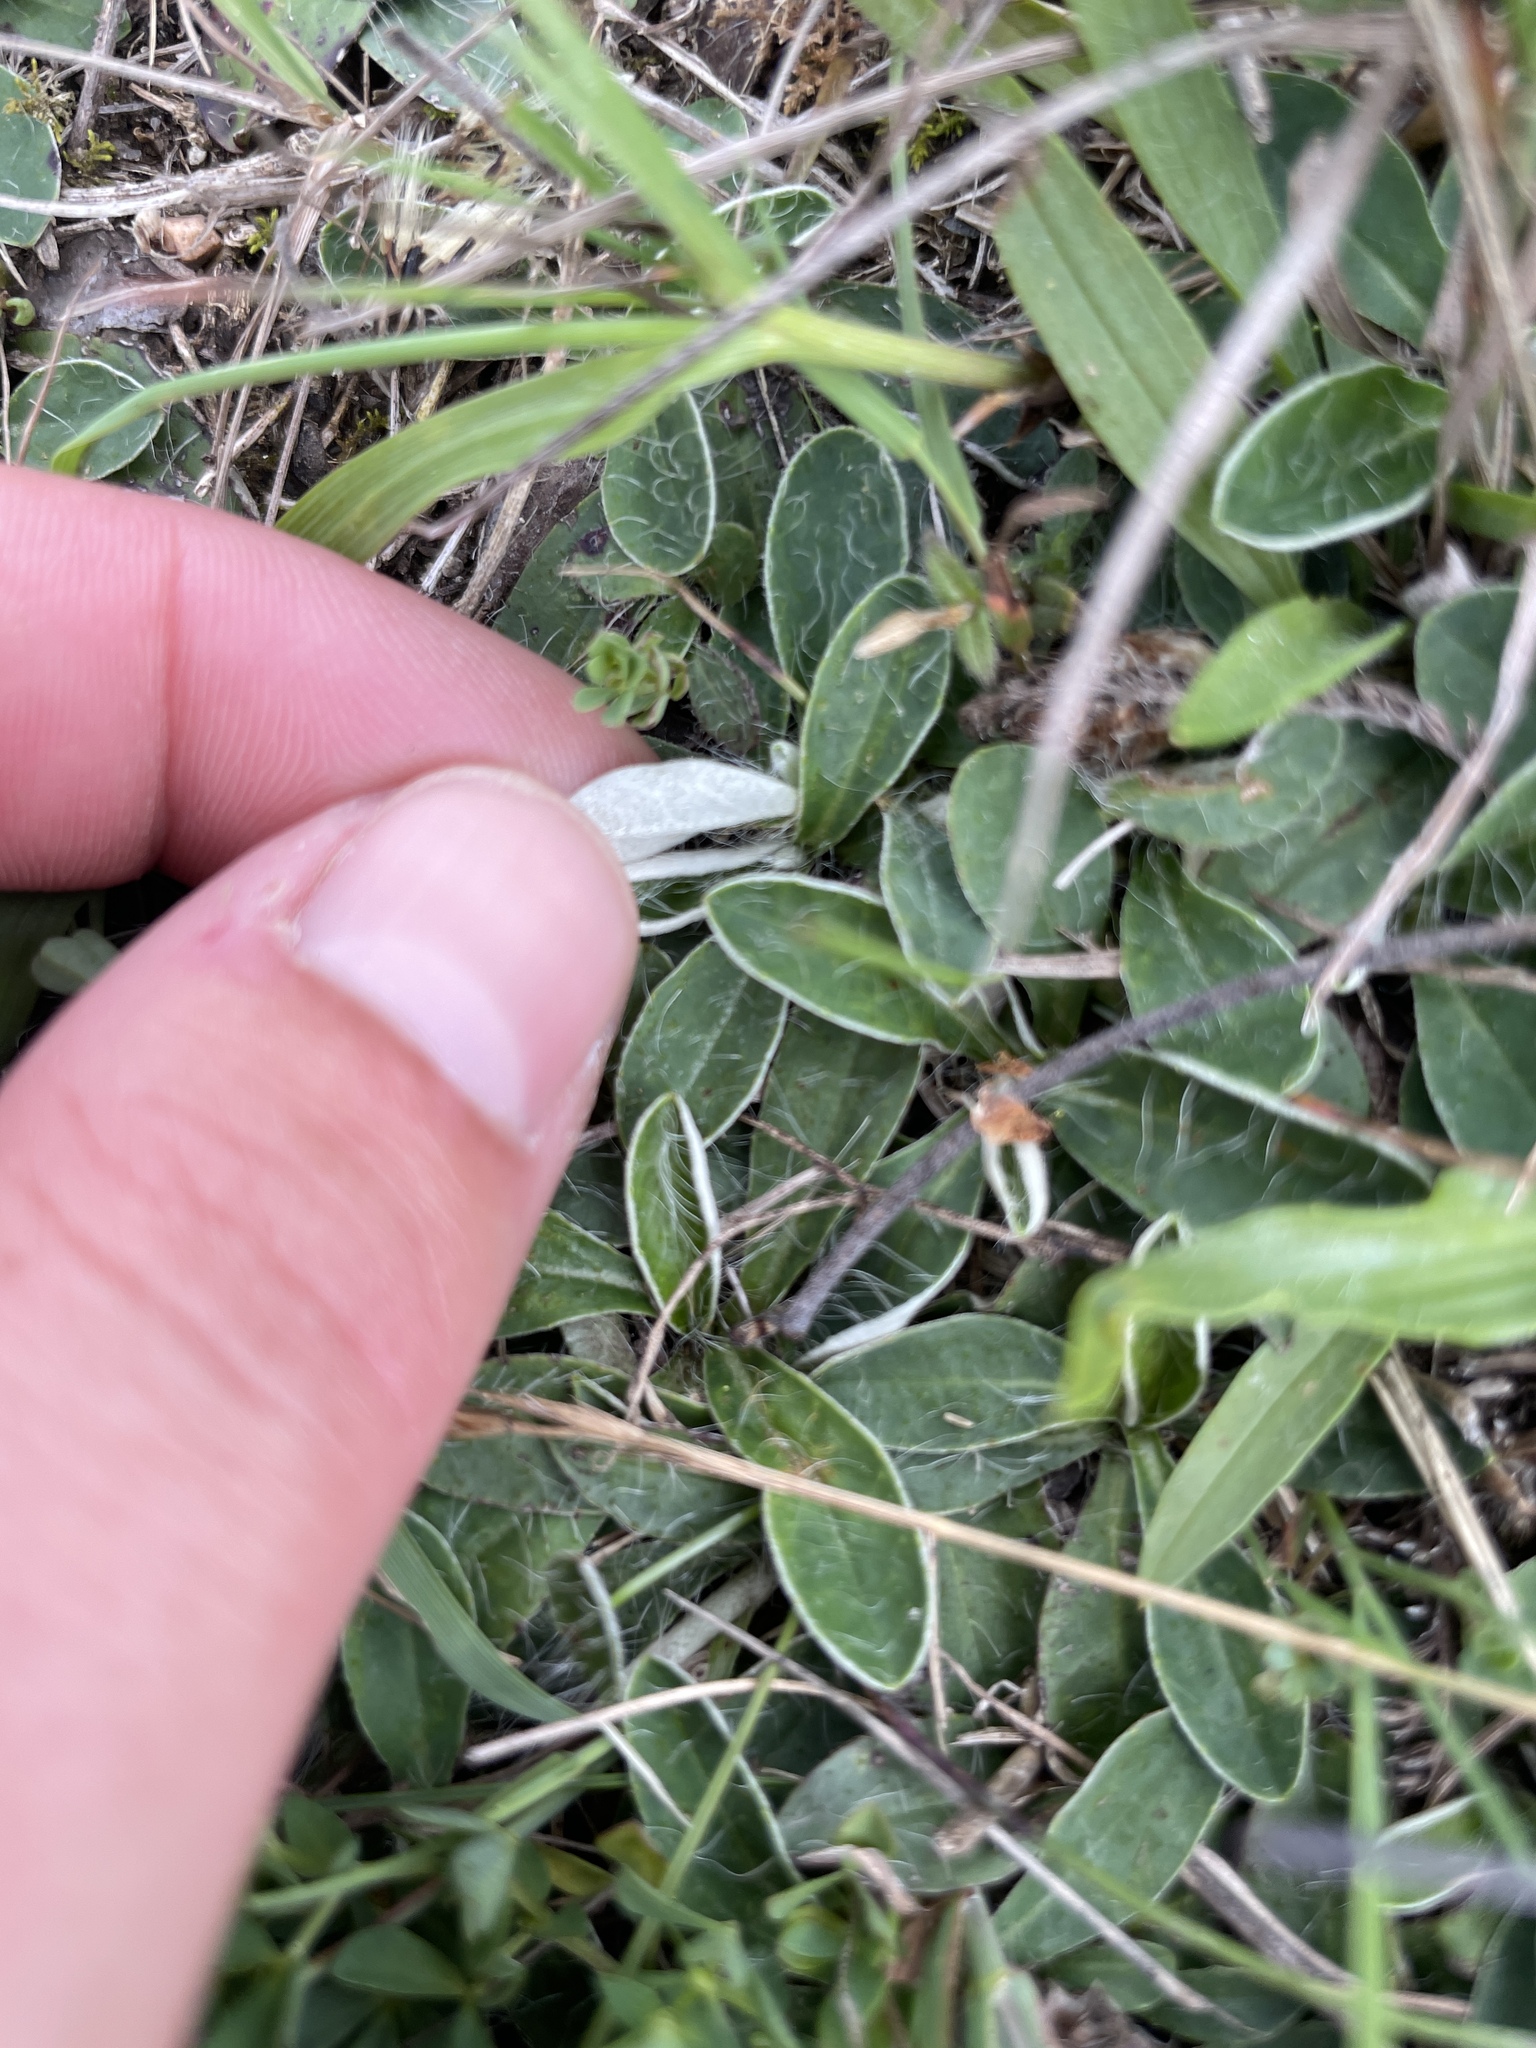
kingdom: Plantae
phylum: Tracheophyta
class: Magnoliopsida
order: Asterales
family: Asteraceae
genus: Pilosella
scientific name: Pilosella officinarum
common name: Mouse-ear hawkweed
